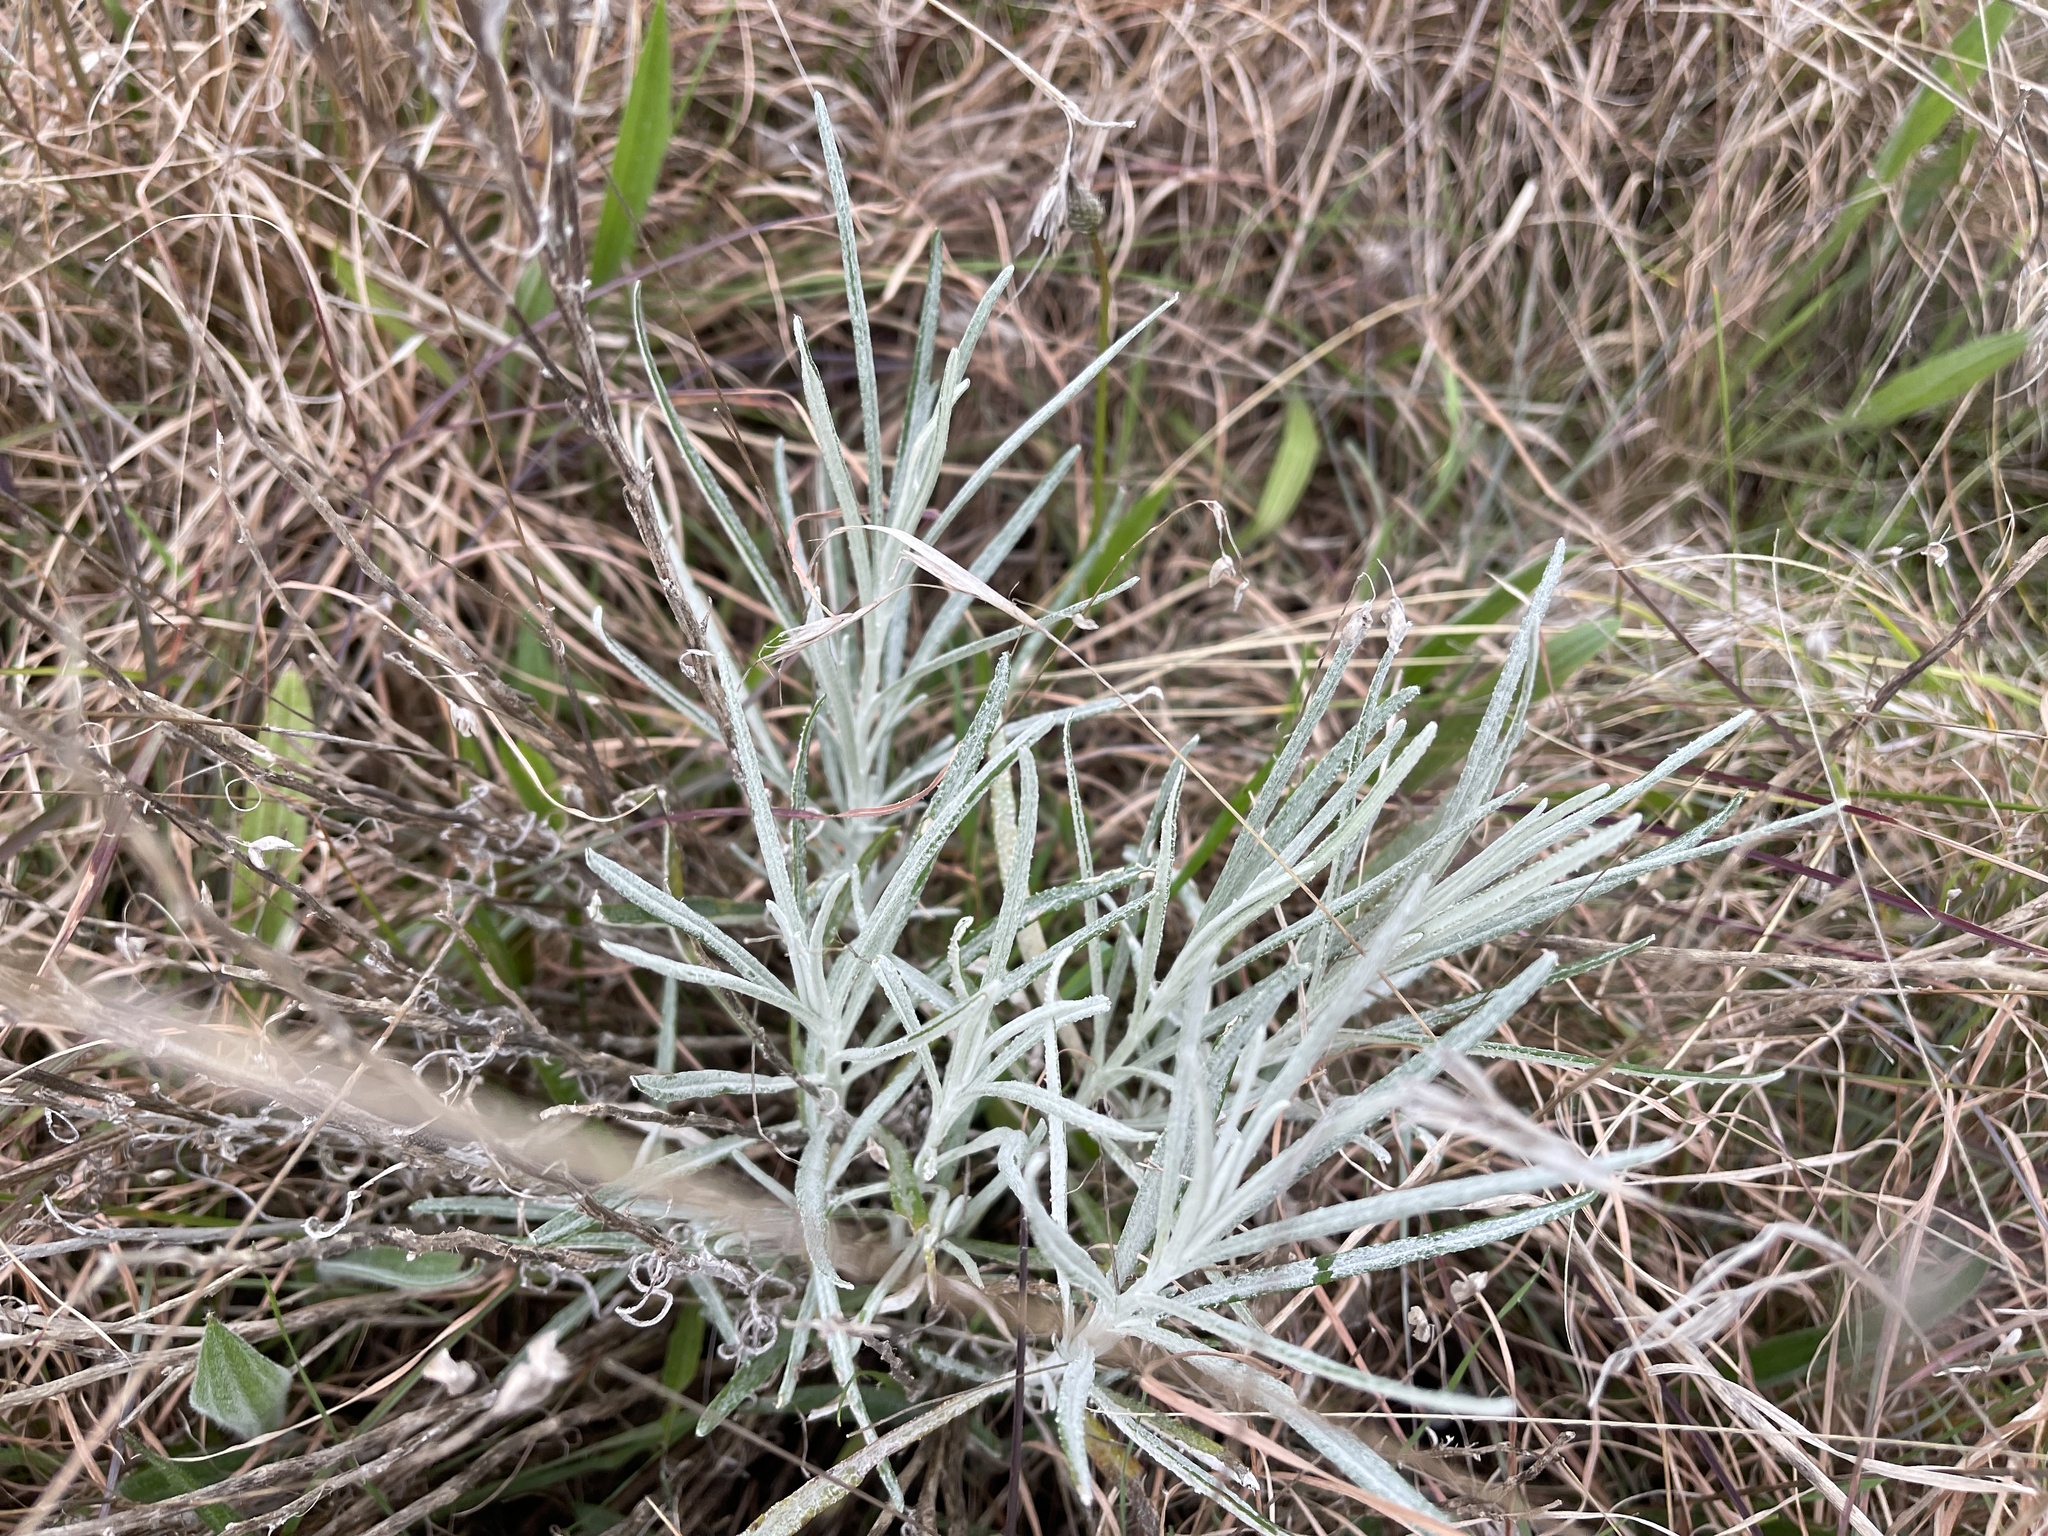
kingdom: Plantae
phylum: Tracheophyta
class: Magnoliopsida
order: Asterales
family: Asteraceae
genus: Senecio
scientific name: Senecio quadridentatus
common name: Cotton fireweed
